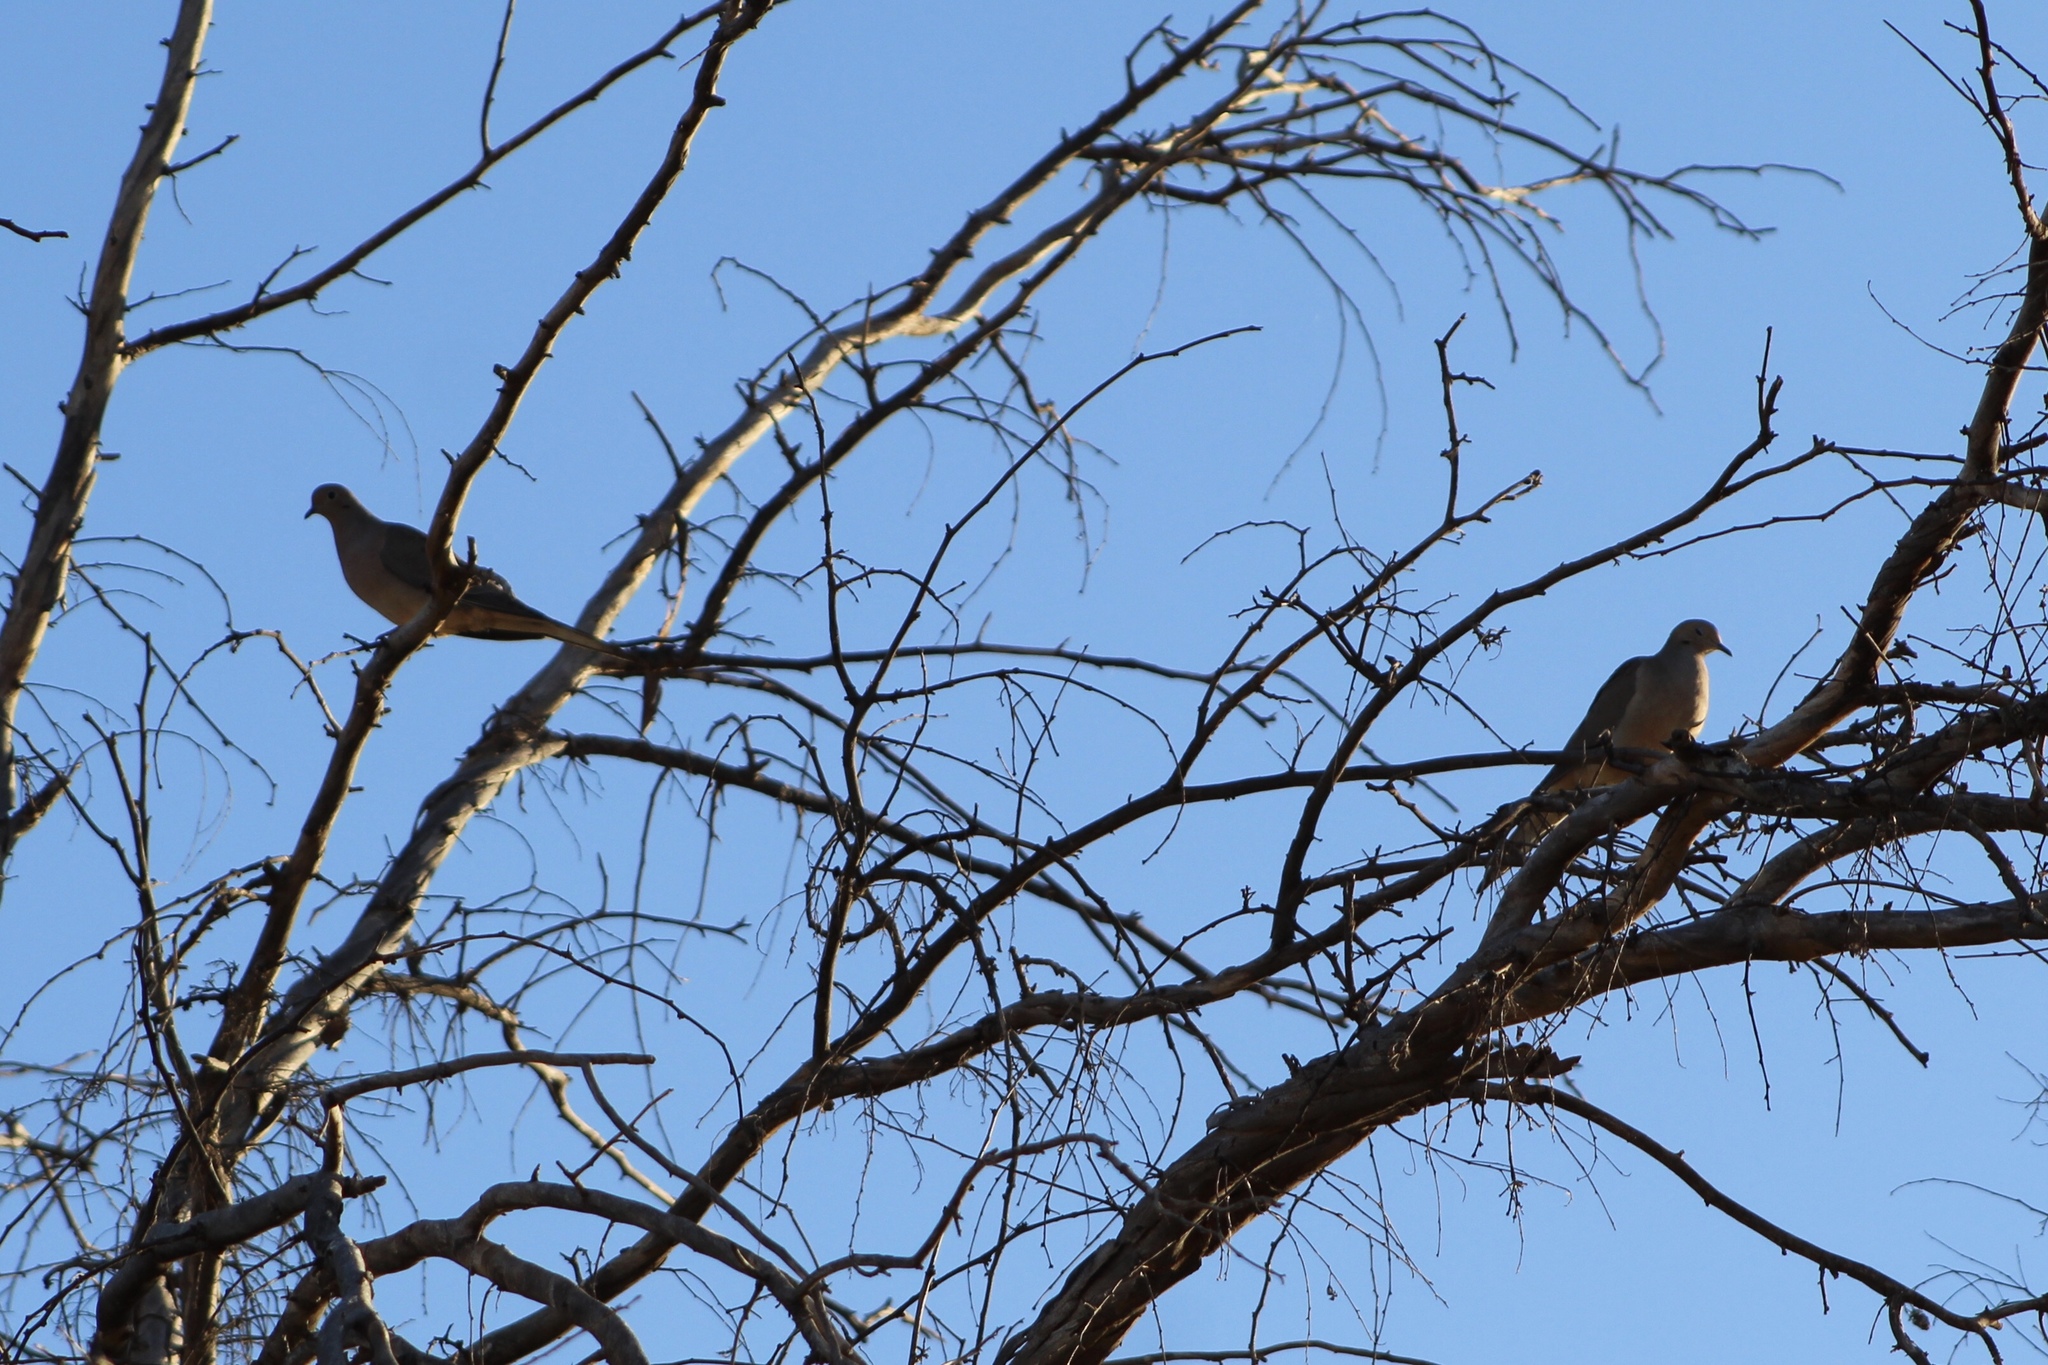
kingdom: Animalia
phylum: Chordata
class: Aves
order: Columbiformes
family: Columbidae
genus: Zenaida
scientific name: Zenaida macroura
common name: Mourning dove
